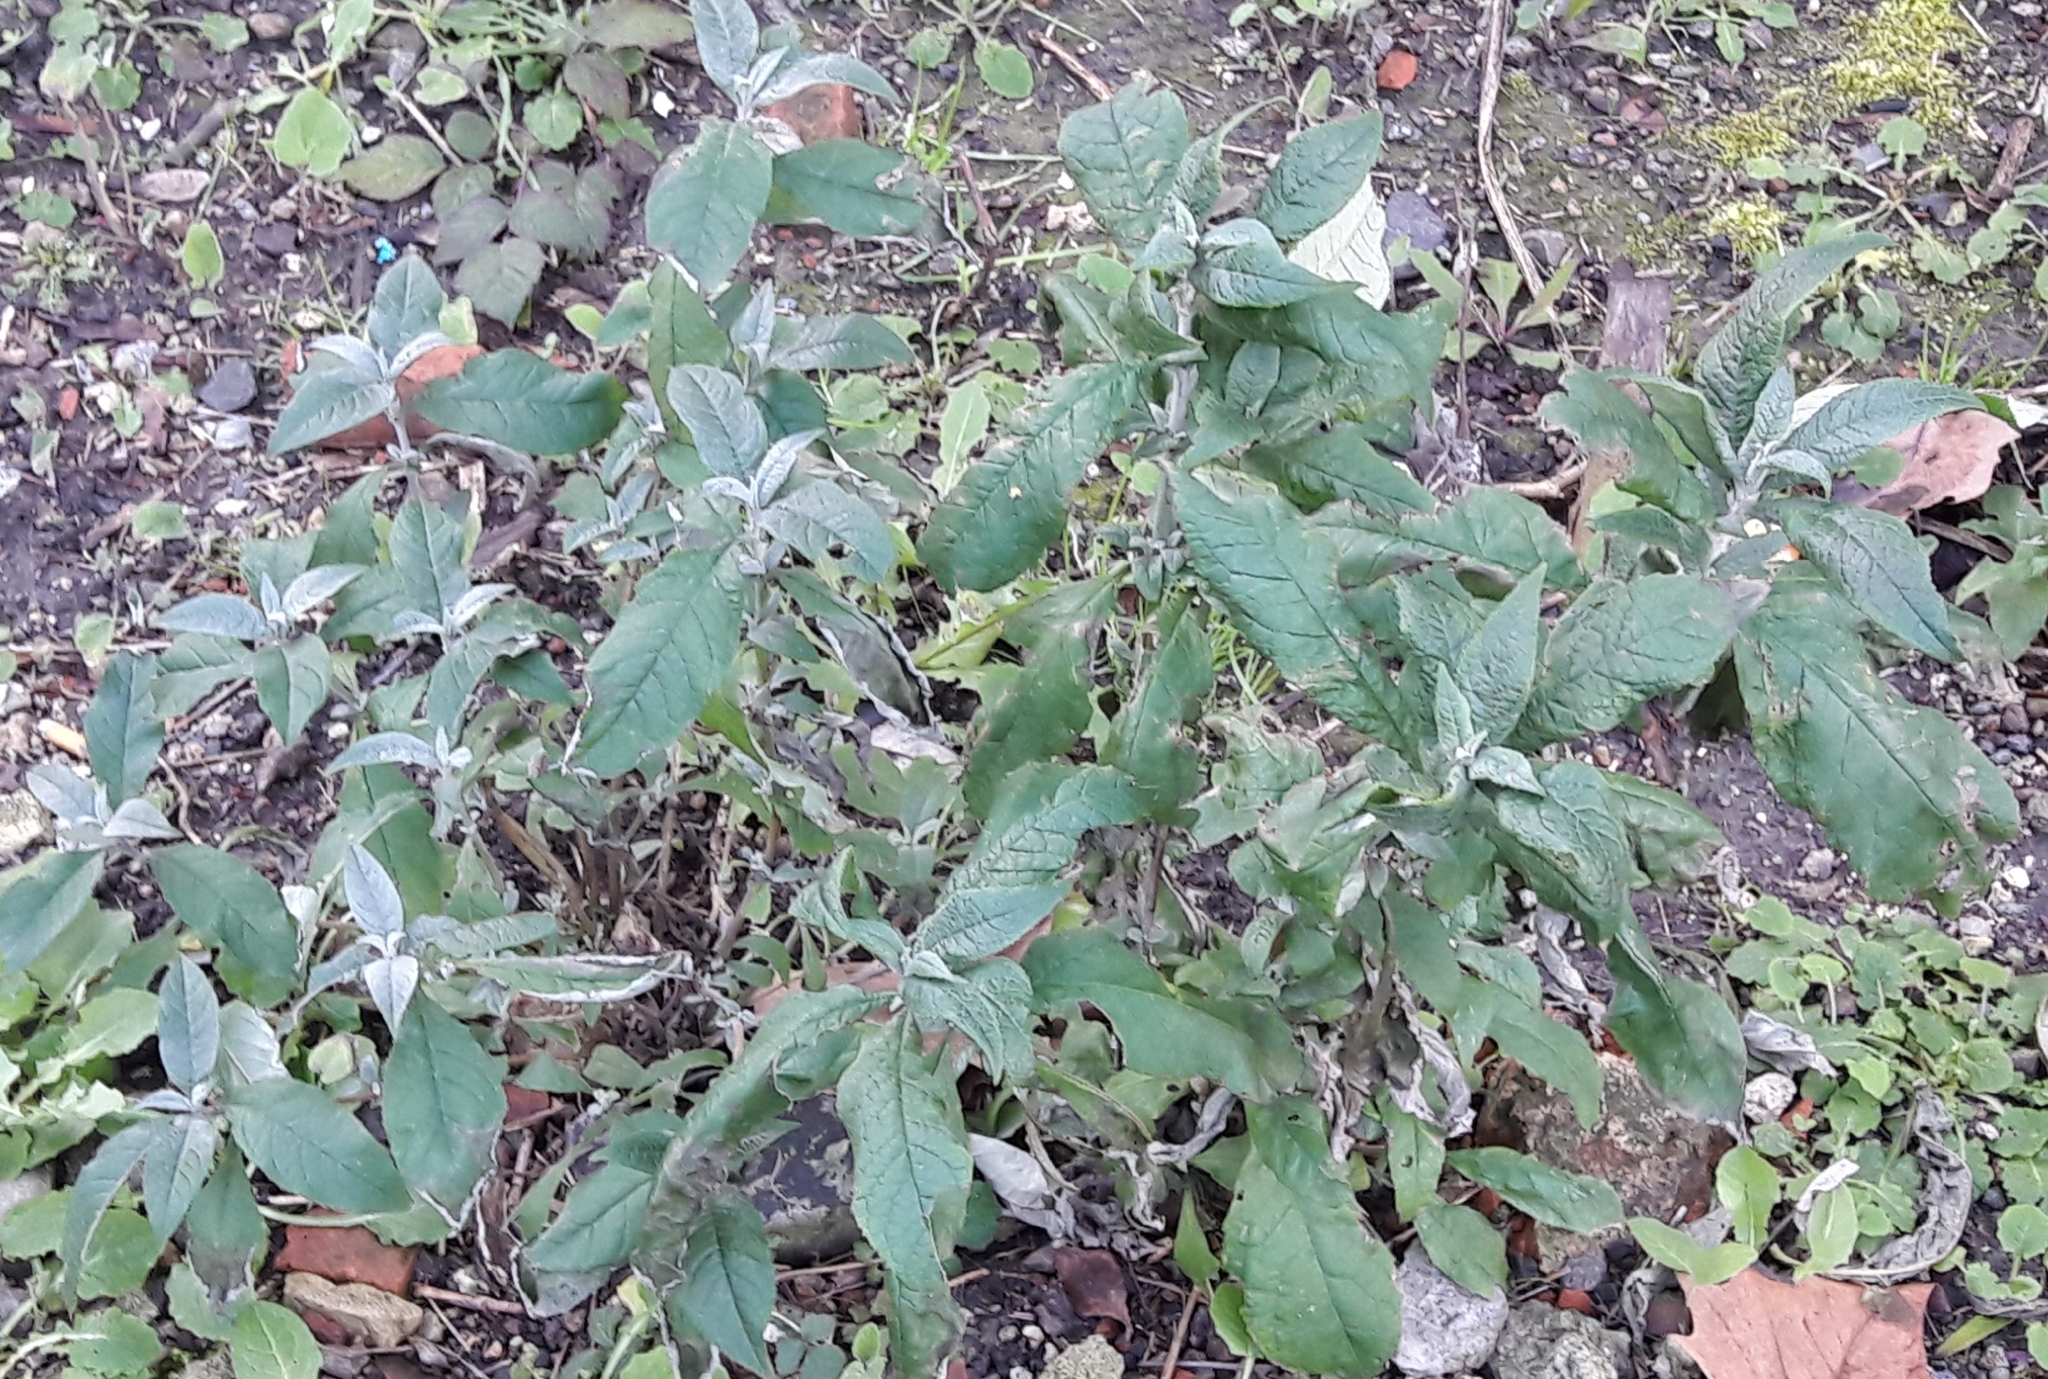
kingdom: Plantae
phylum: Tracheophyta
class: Magnoliopsida
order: Lamiales
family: Scrophulariaceae
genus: Buddleja
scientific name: Buddleja davidii
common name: Butterfly-bush
